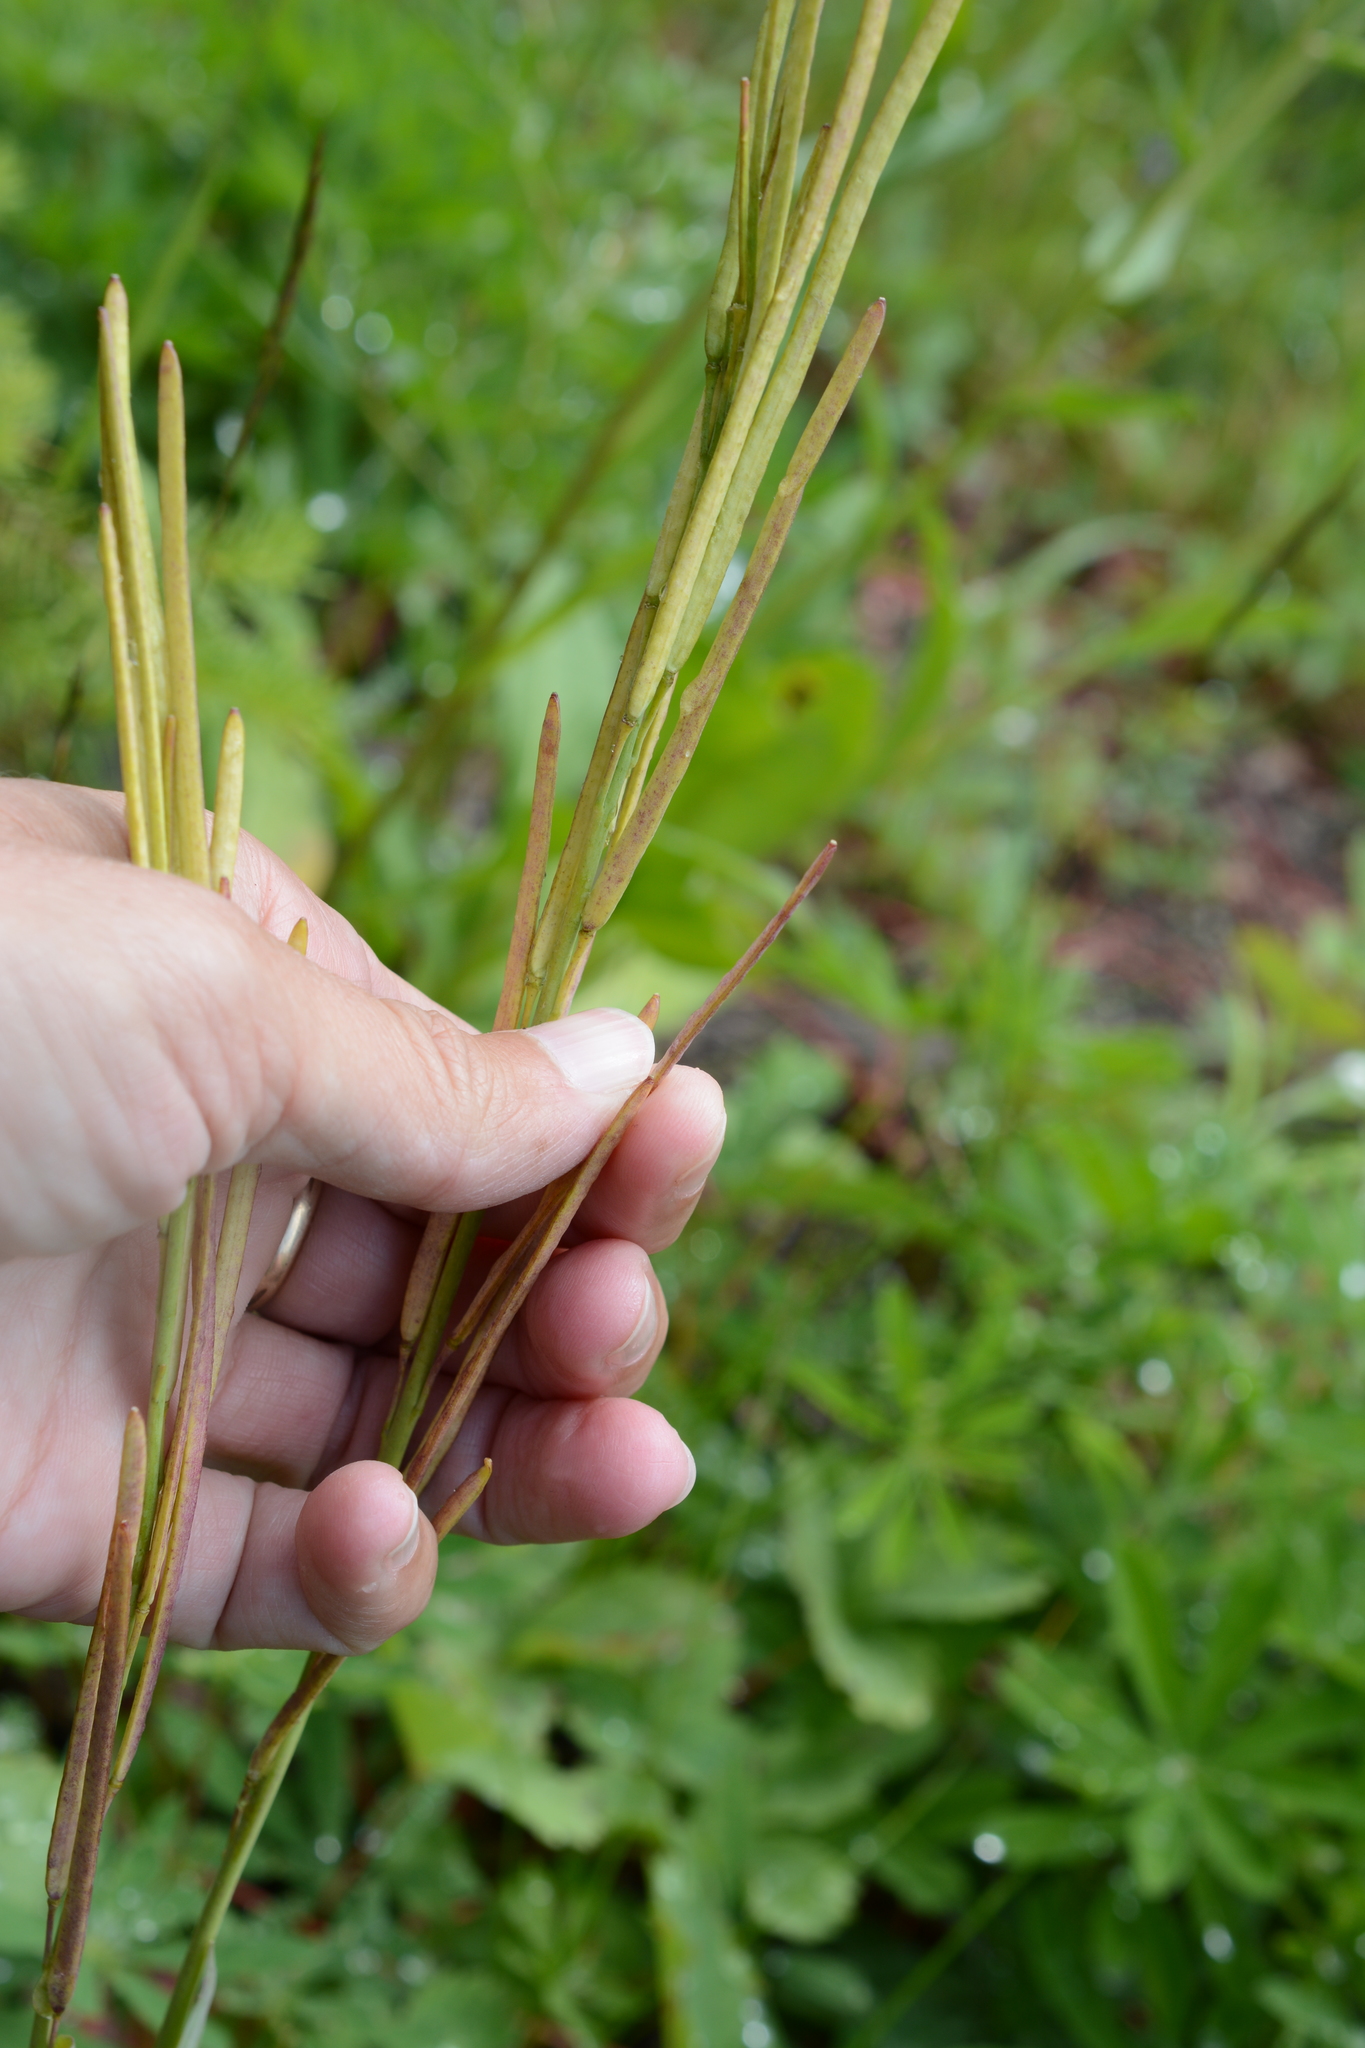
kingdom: Plantae
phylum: Tracheophyta
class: Magnoliopsida
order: Brassicales
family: Brassicaceae
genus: Boechera
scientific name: Boechera stricta
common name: Canadian rockcress
